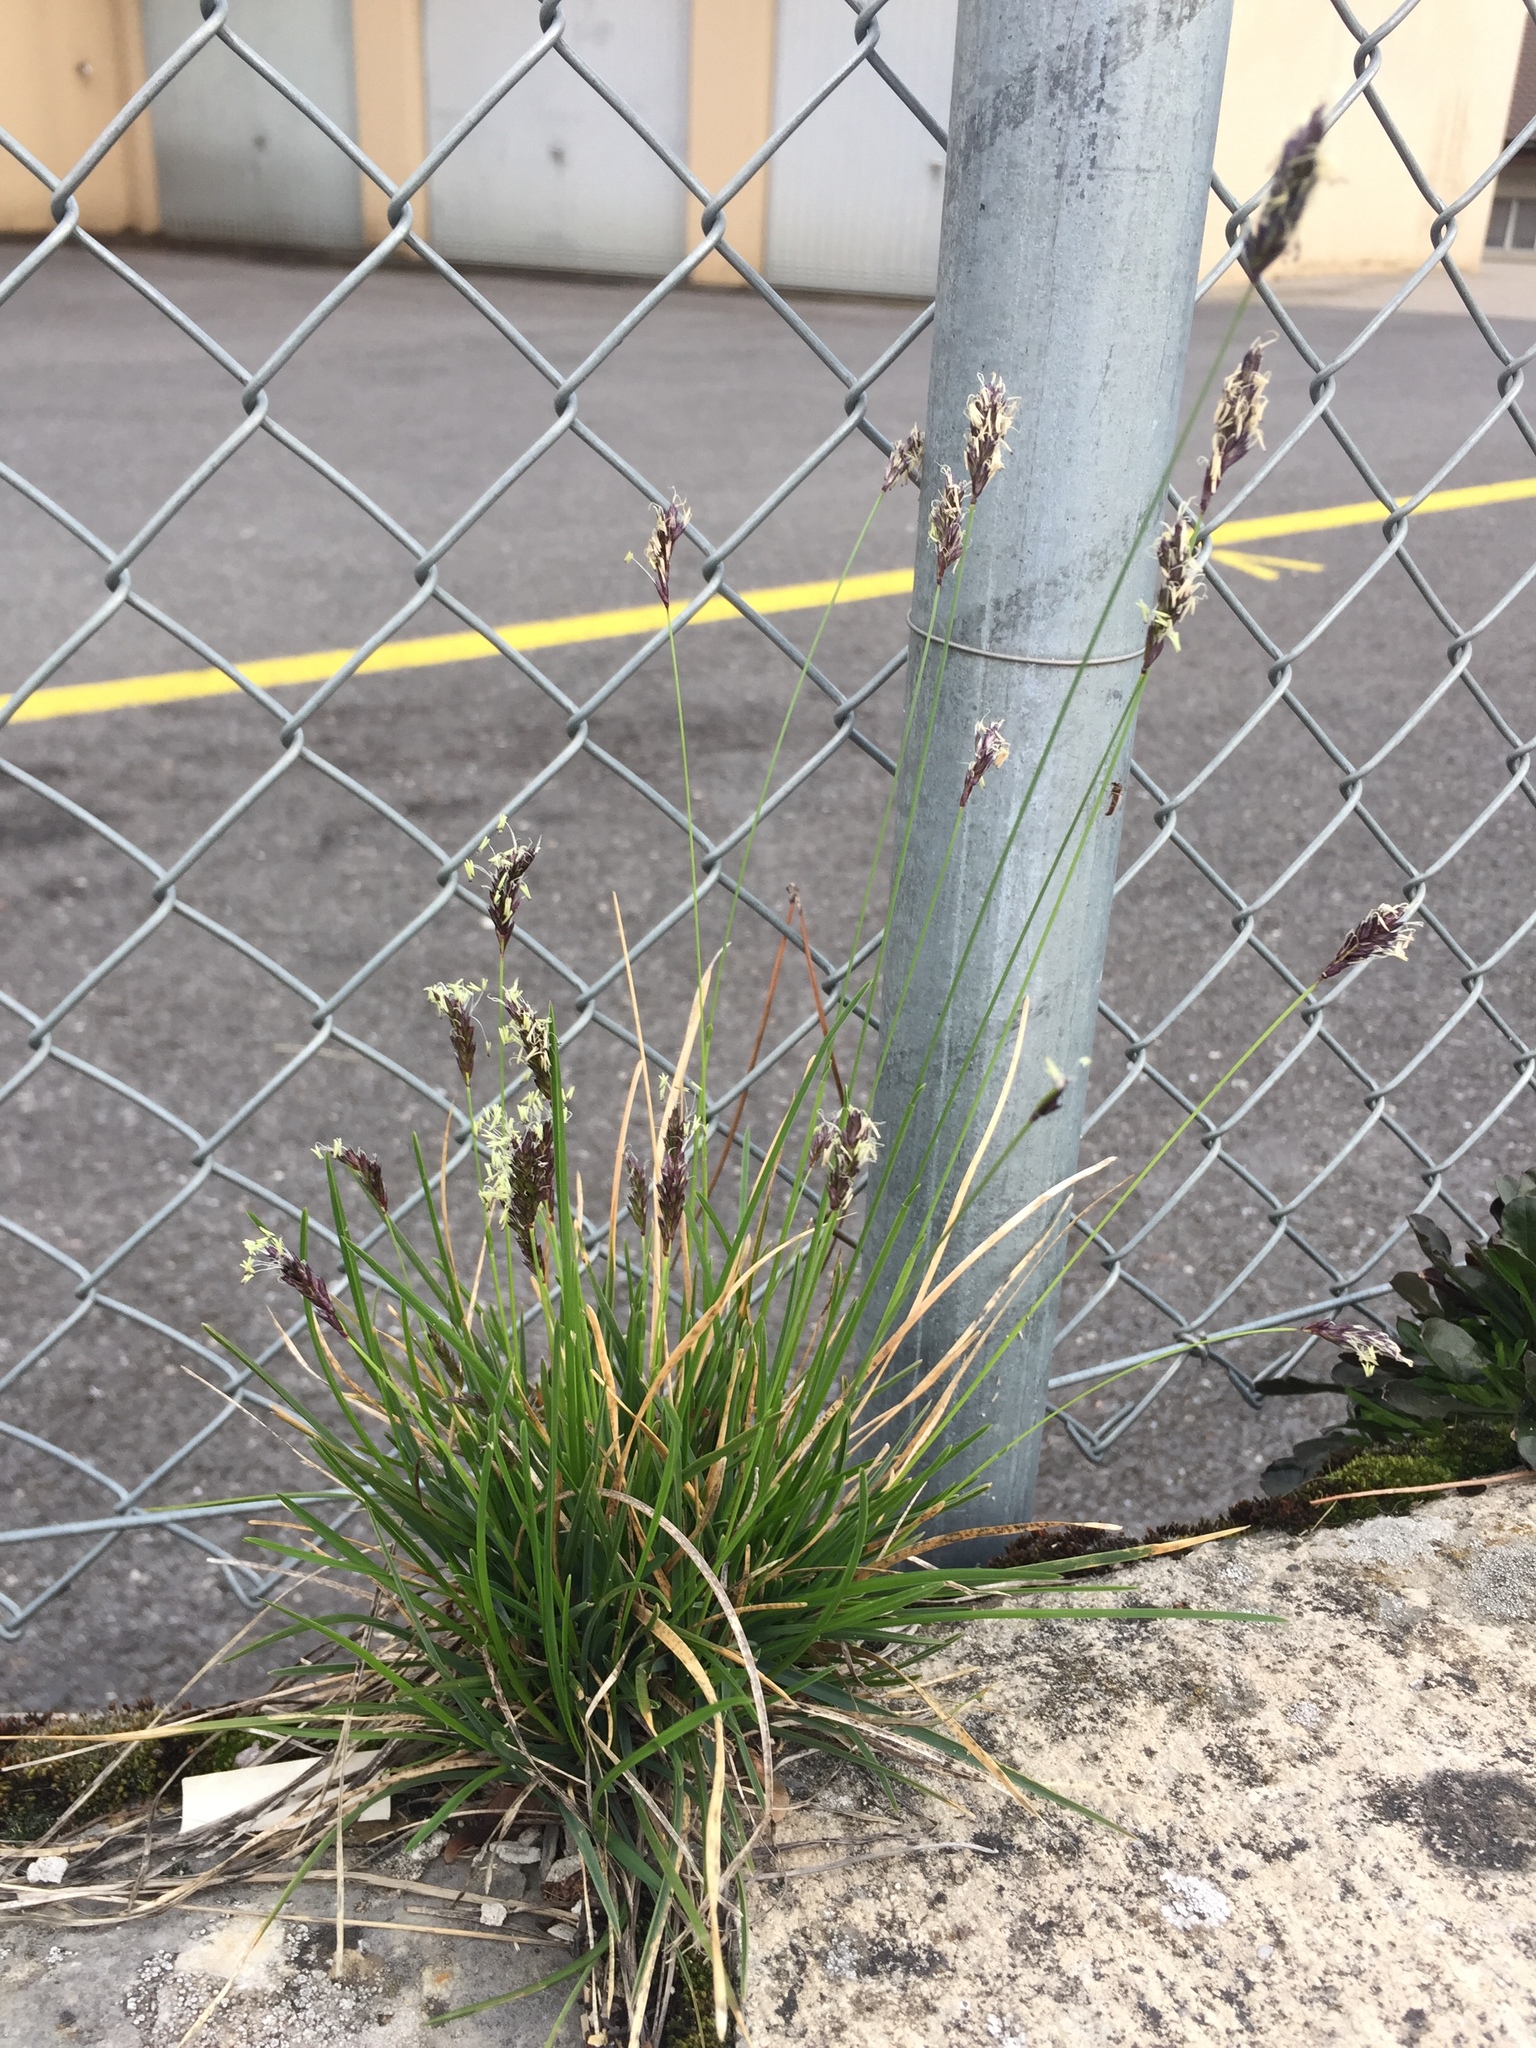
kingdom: Plantae
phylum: Tracheophyta
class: Liliopsida
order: Poales
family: Poaceae
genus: Sesleria
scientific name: Sesleria caerulea
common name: Blue moor-grass
